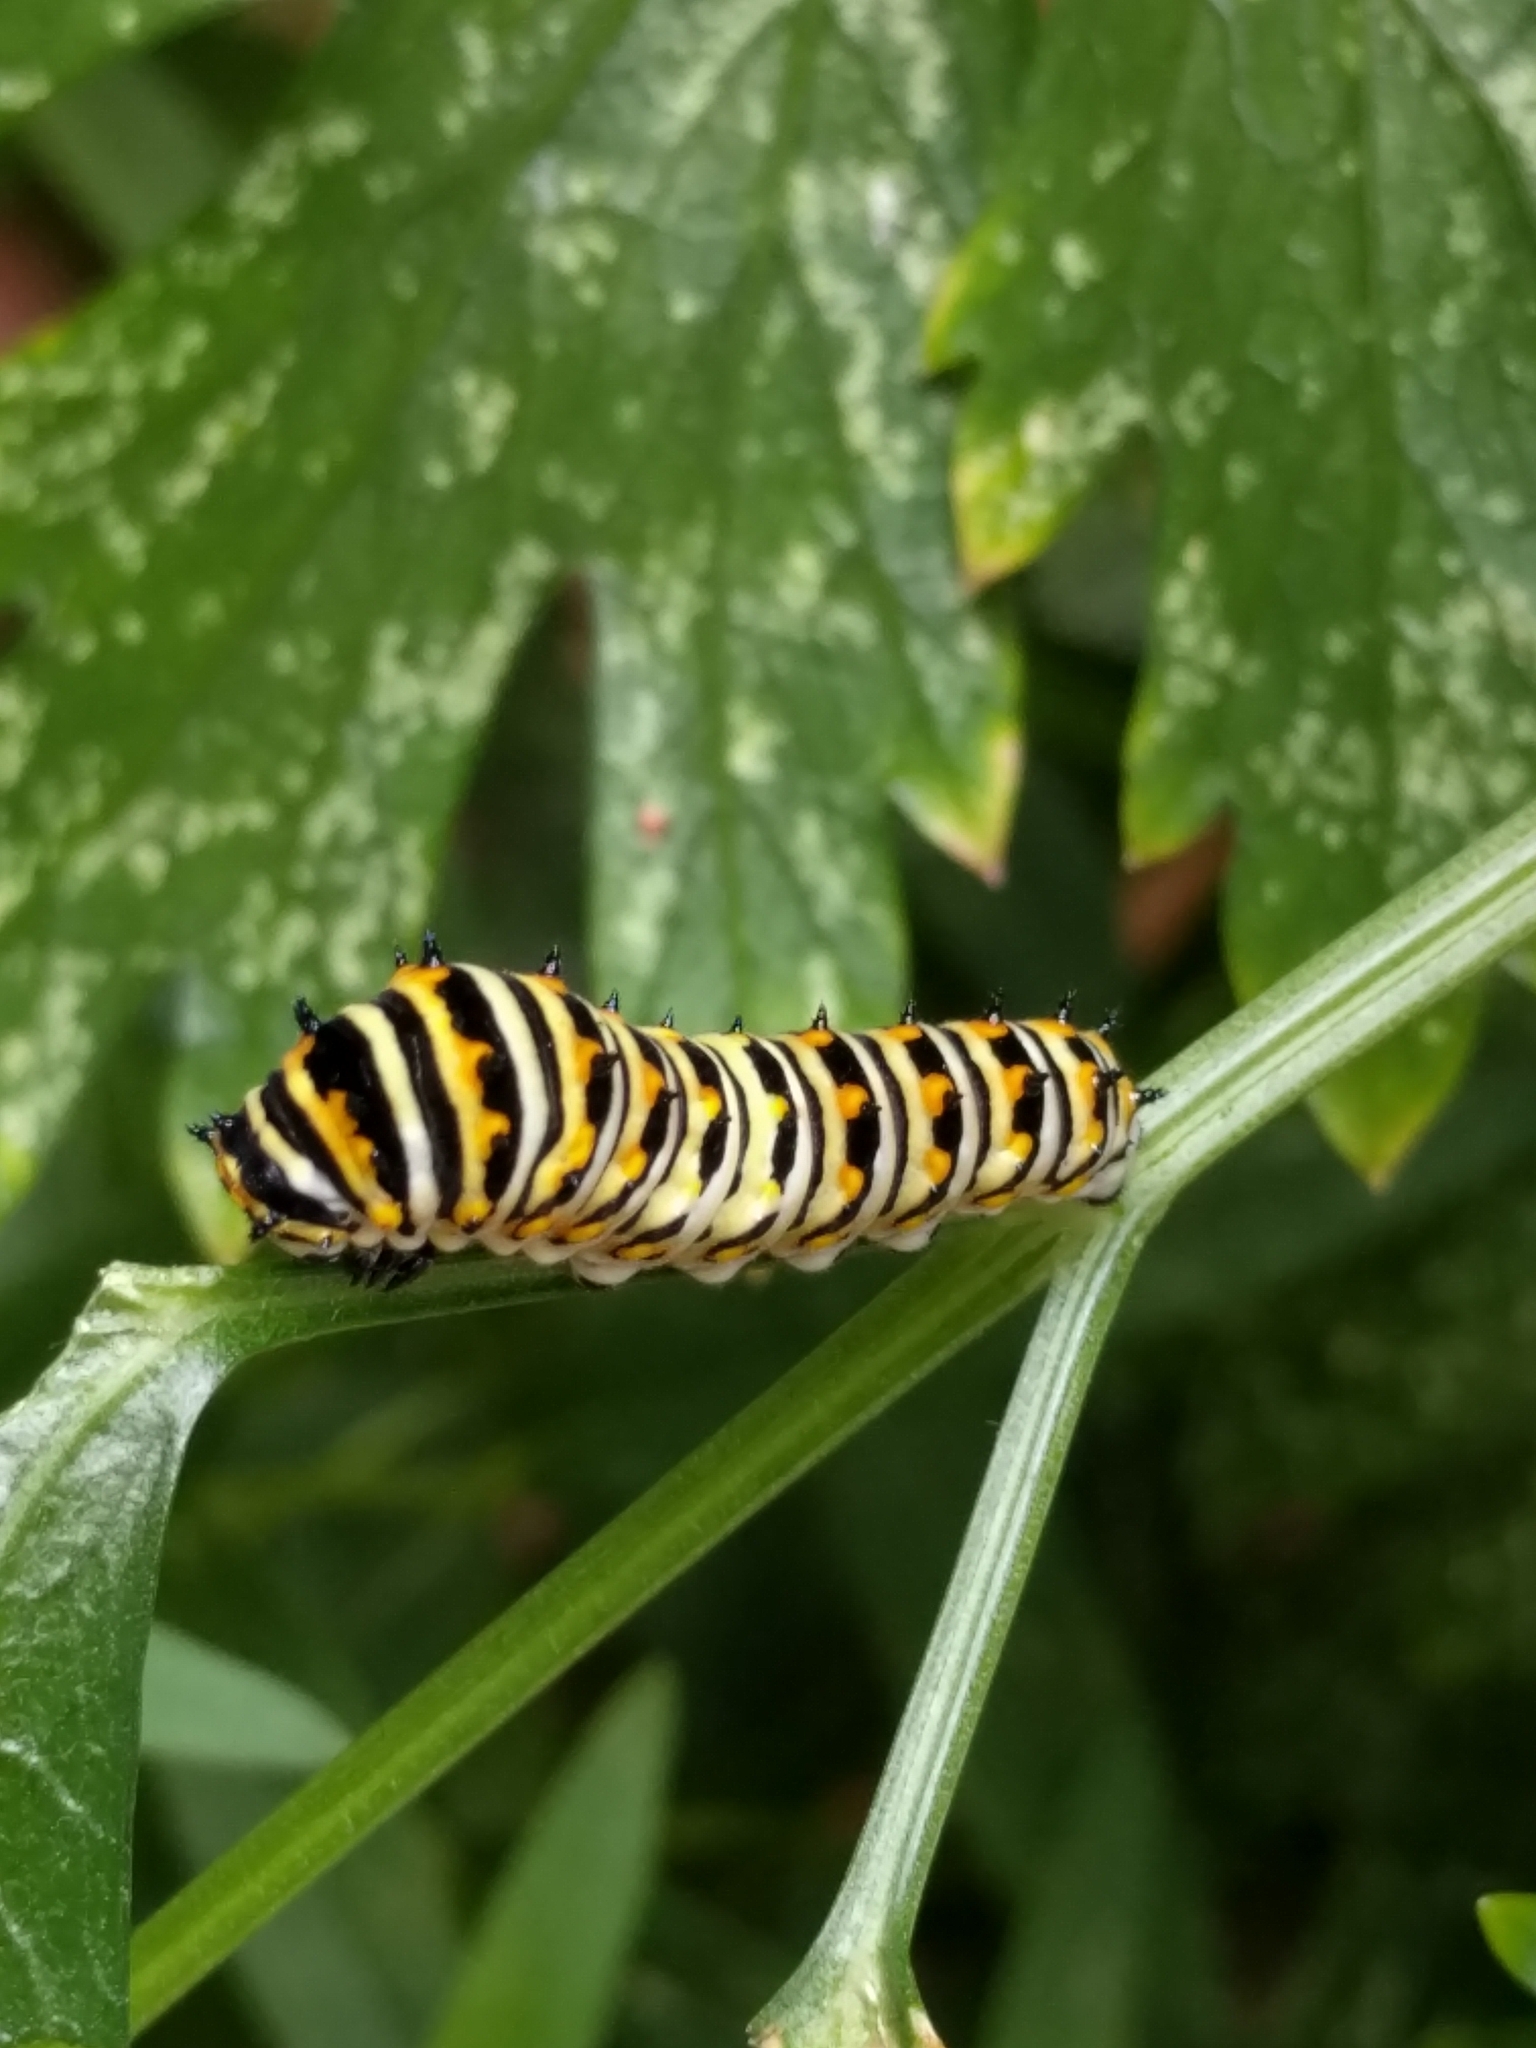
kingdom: Animalia
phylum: Arthropoda
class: Insecta
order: Lepidoptera
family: Papilionidae
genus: Papilio
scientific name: Papilio polyxenes
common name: Black swallowtail
